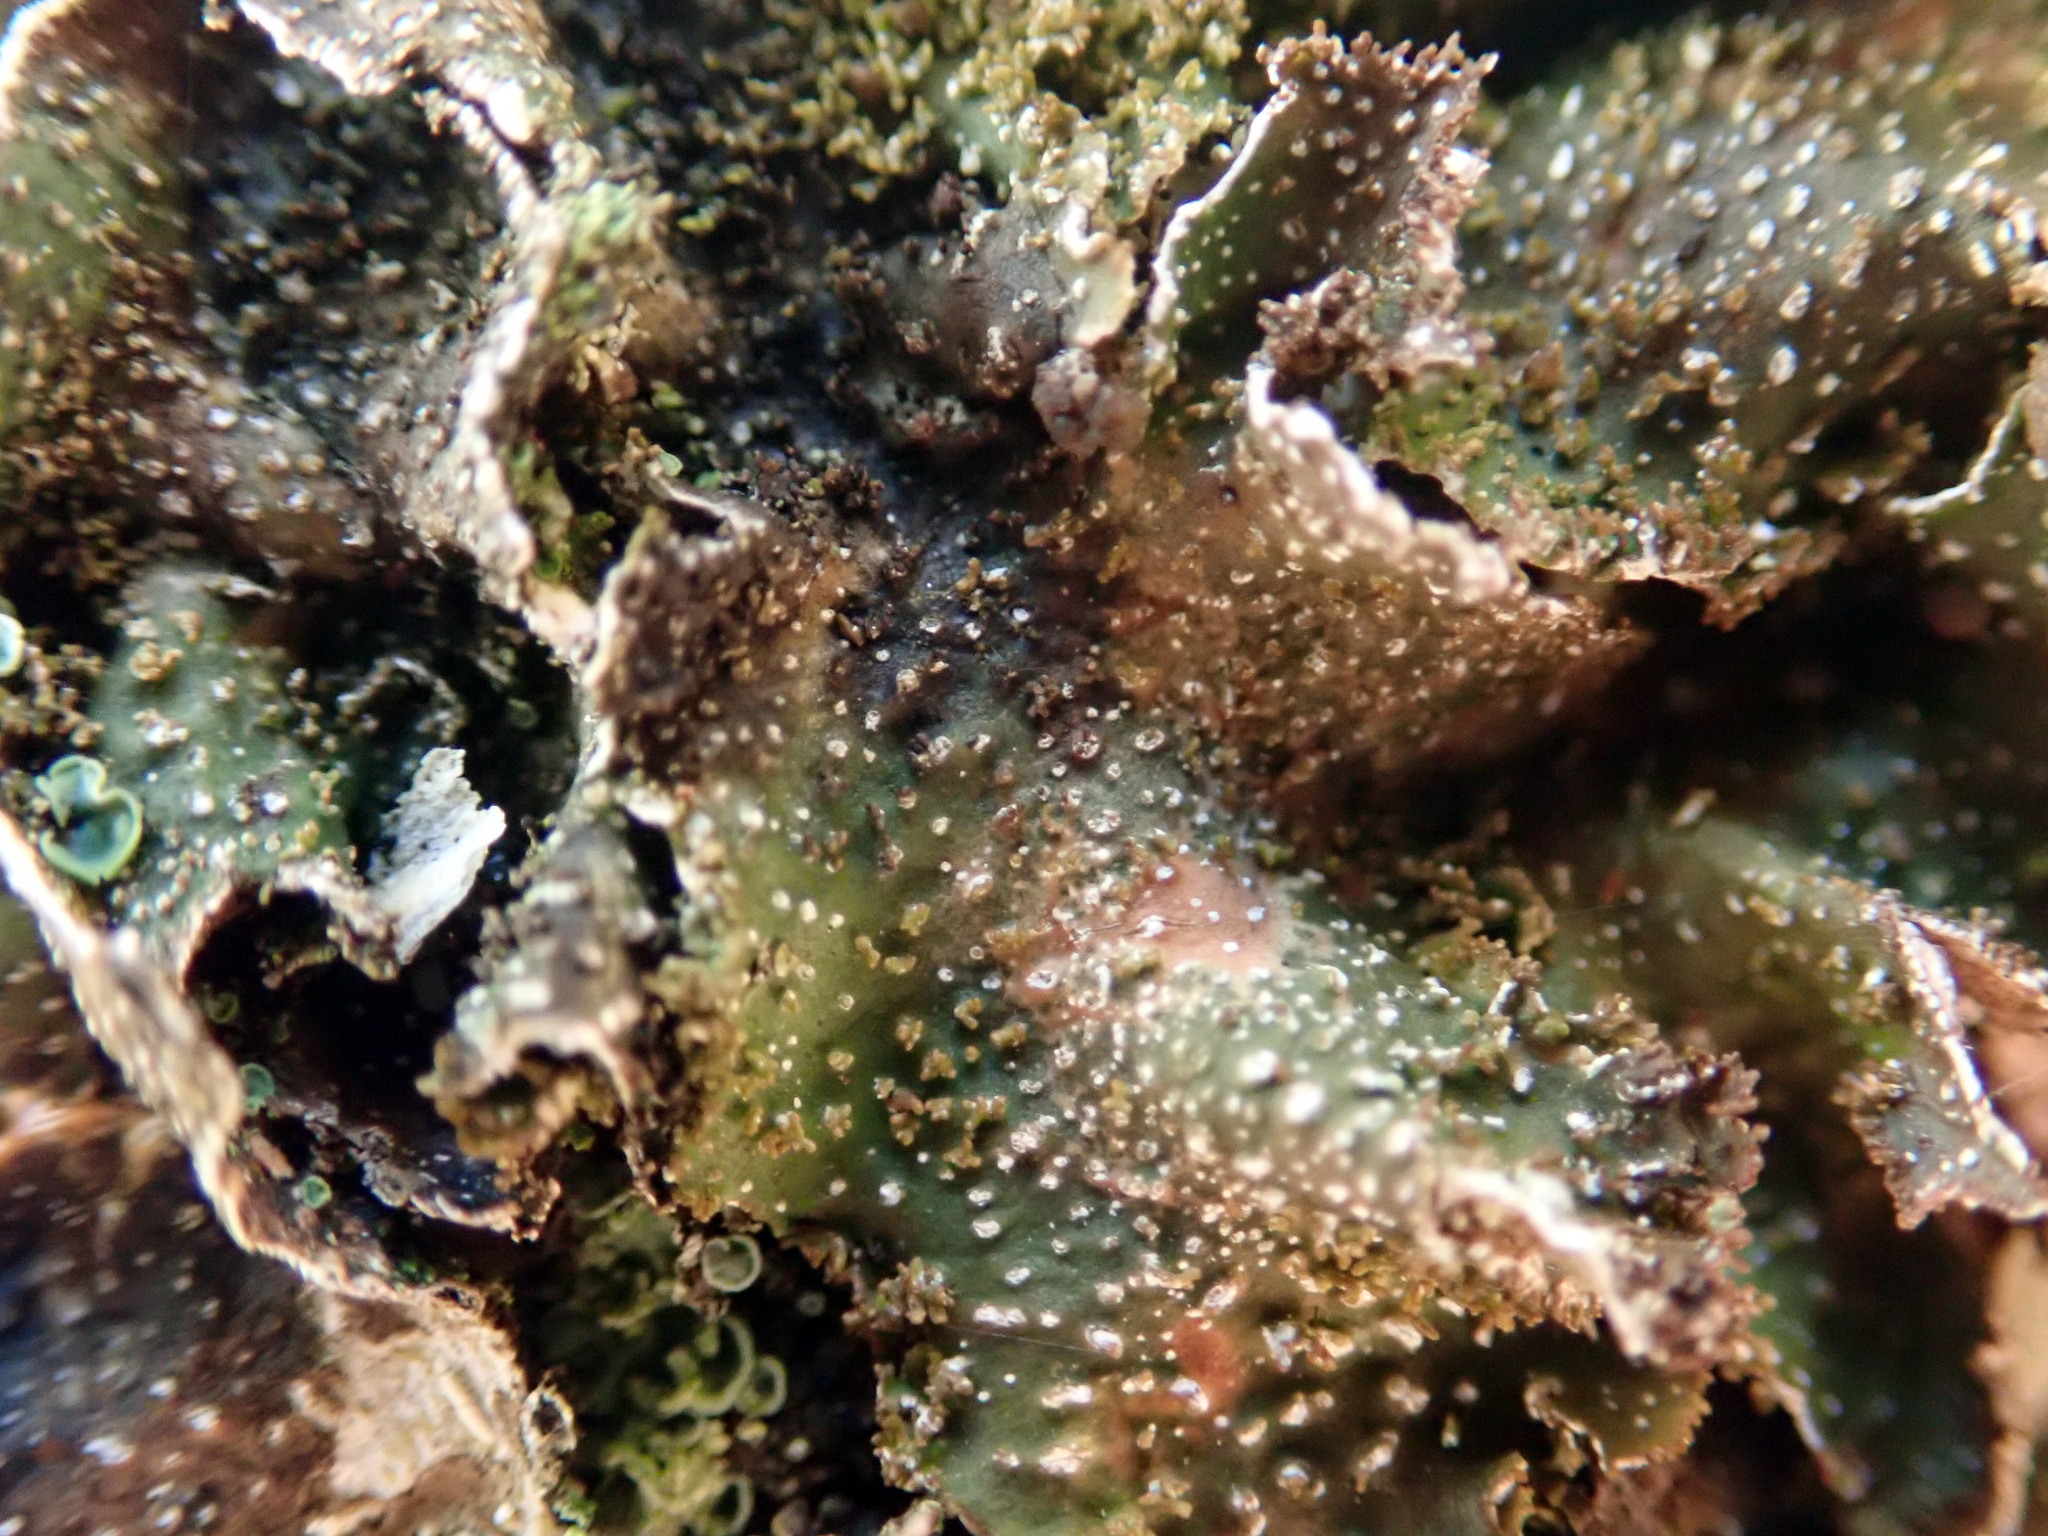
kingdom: Fungi
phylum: Ascomycota
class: Lecanoromycetes
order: Peltigerales
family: Lobariaceae
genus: Pseudocyphellaria
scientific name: Pseudocyphellaria episticta
